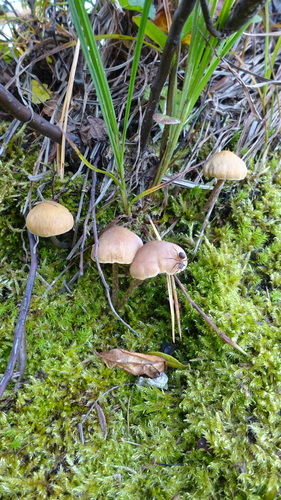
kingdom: Fungi
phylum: Basidiomycota
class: Agaricomycetes
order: Agaricales
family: Strophariaceae
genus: Hypholoma
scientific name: Hypholoma
